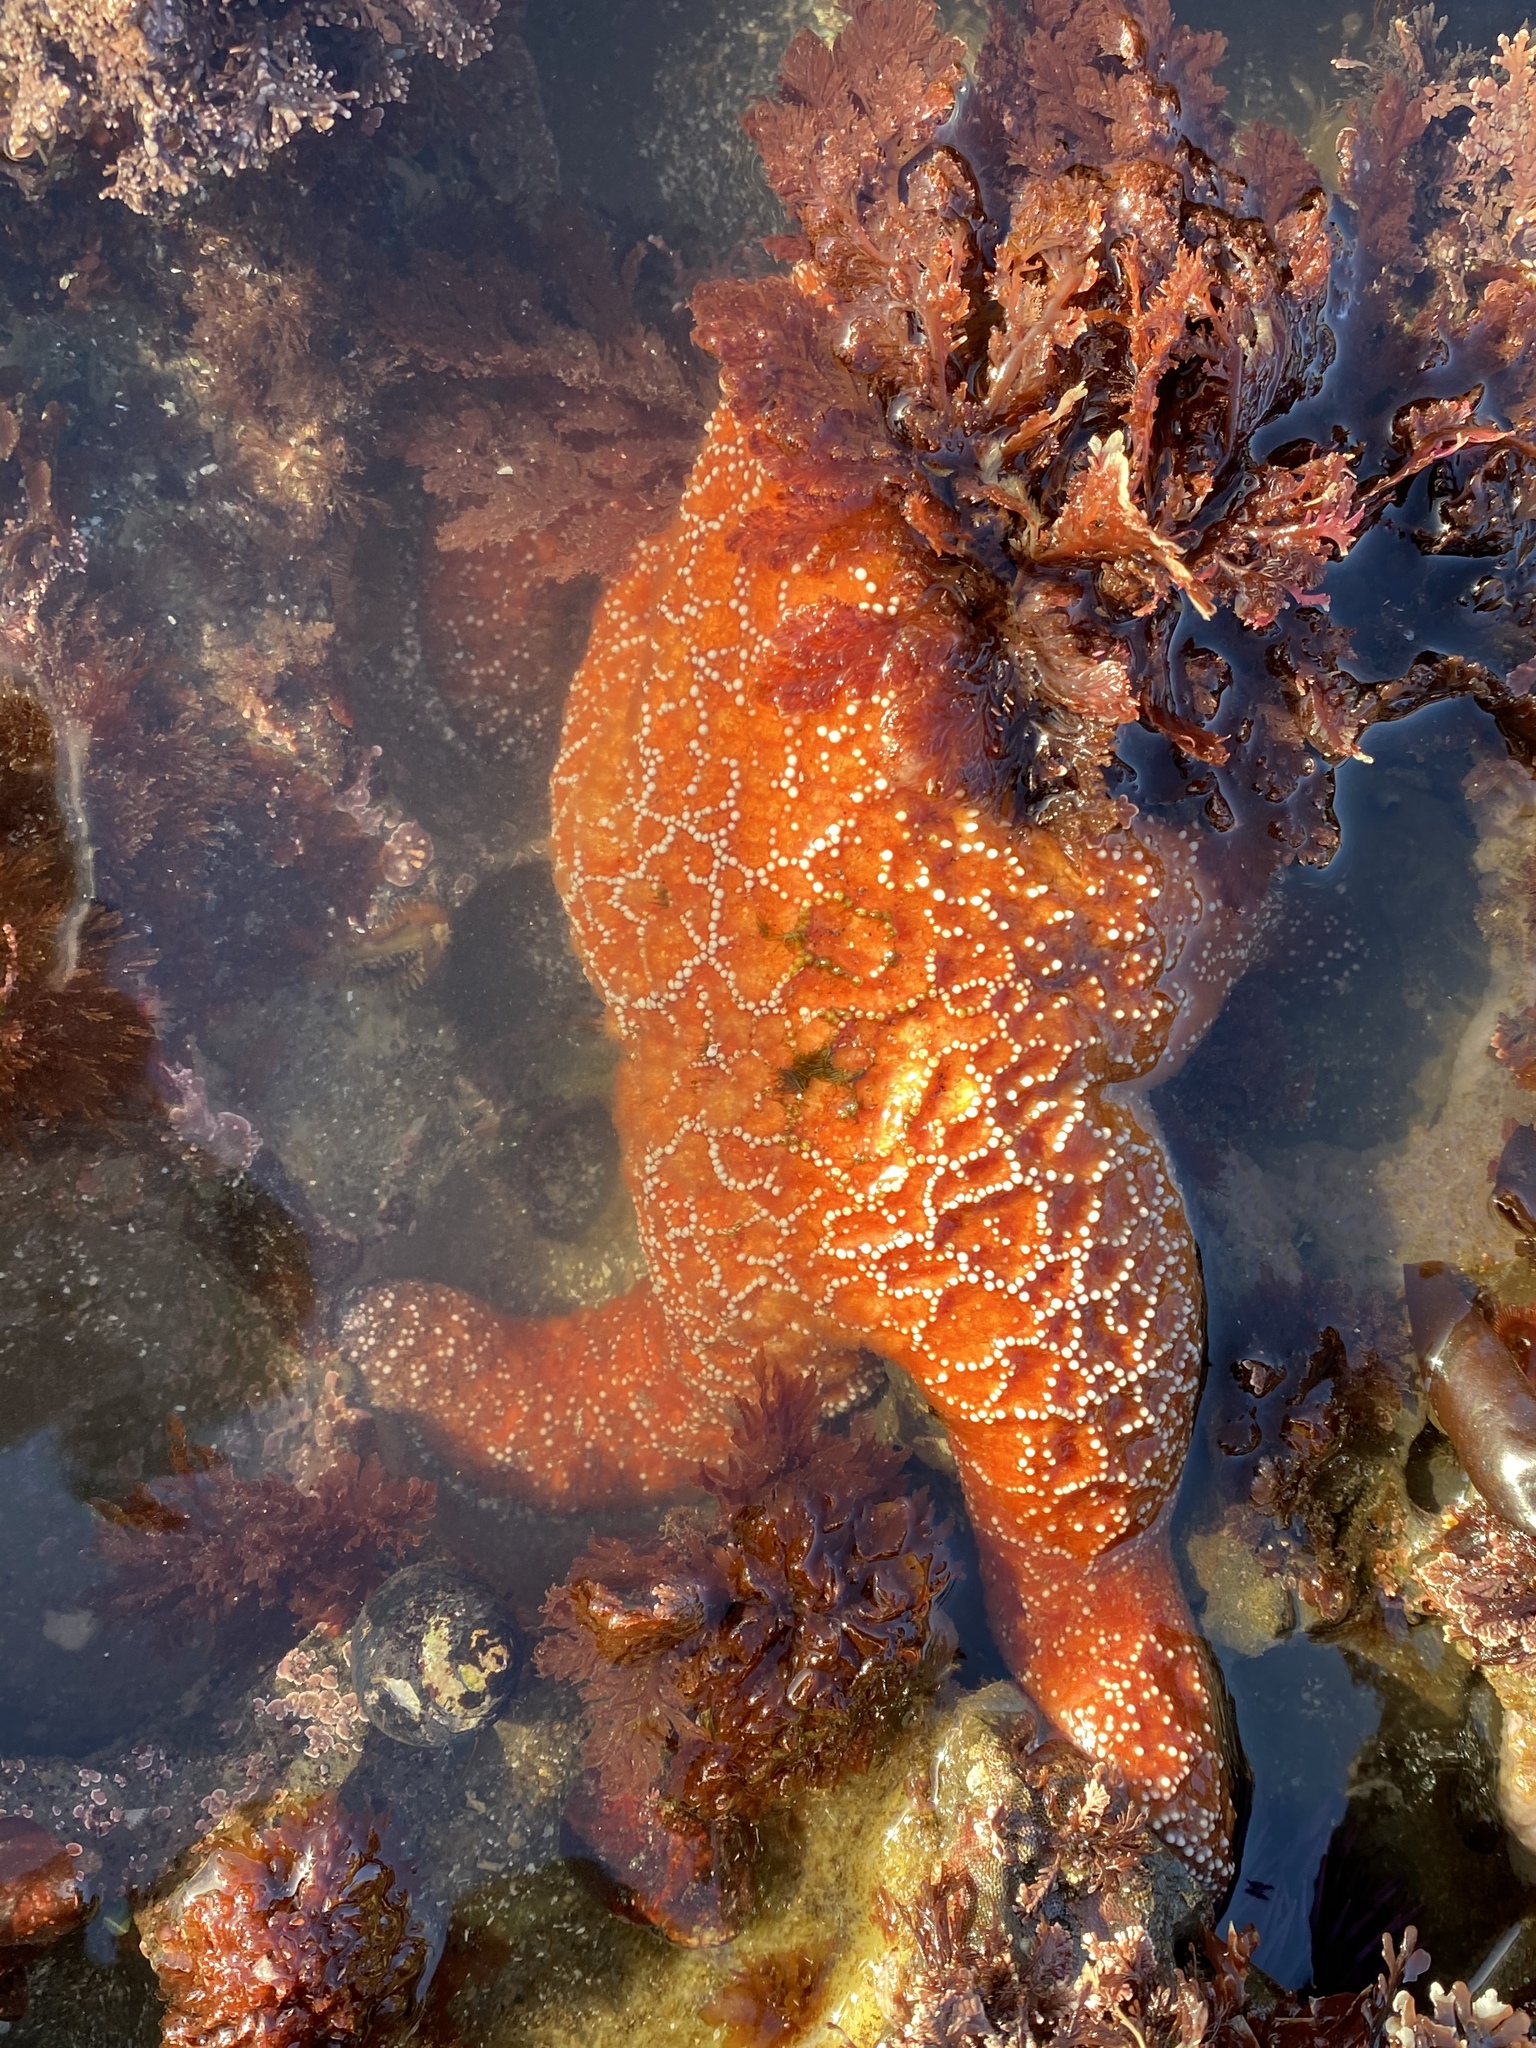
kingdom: Animalia
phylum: Echinodermata
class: Asteroidea
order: Forcipulatida
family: Asteriidae
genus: Pisaster
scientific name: Pisaster ochraceus
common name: Ochre stars
